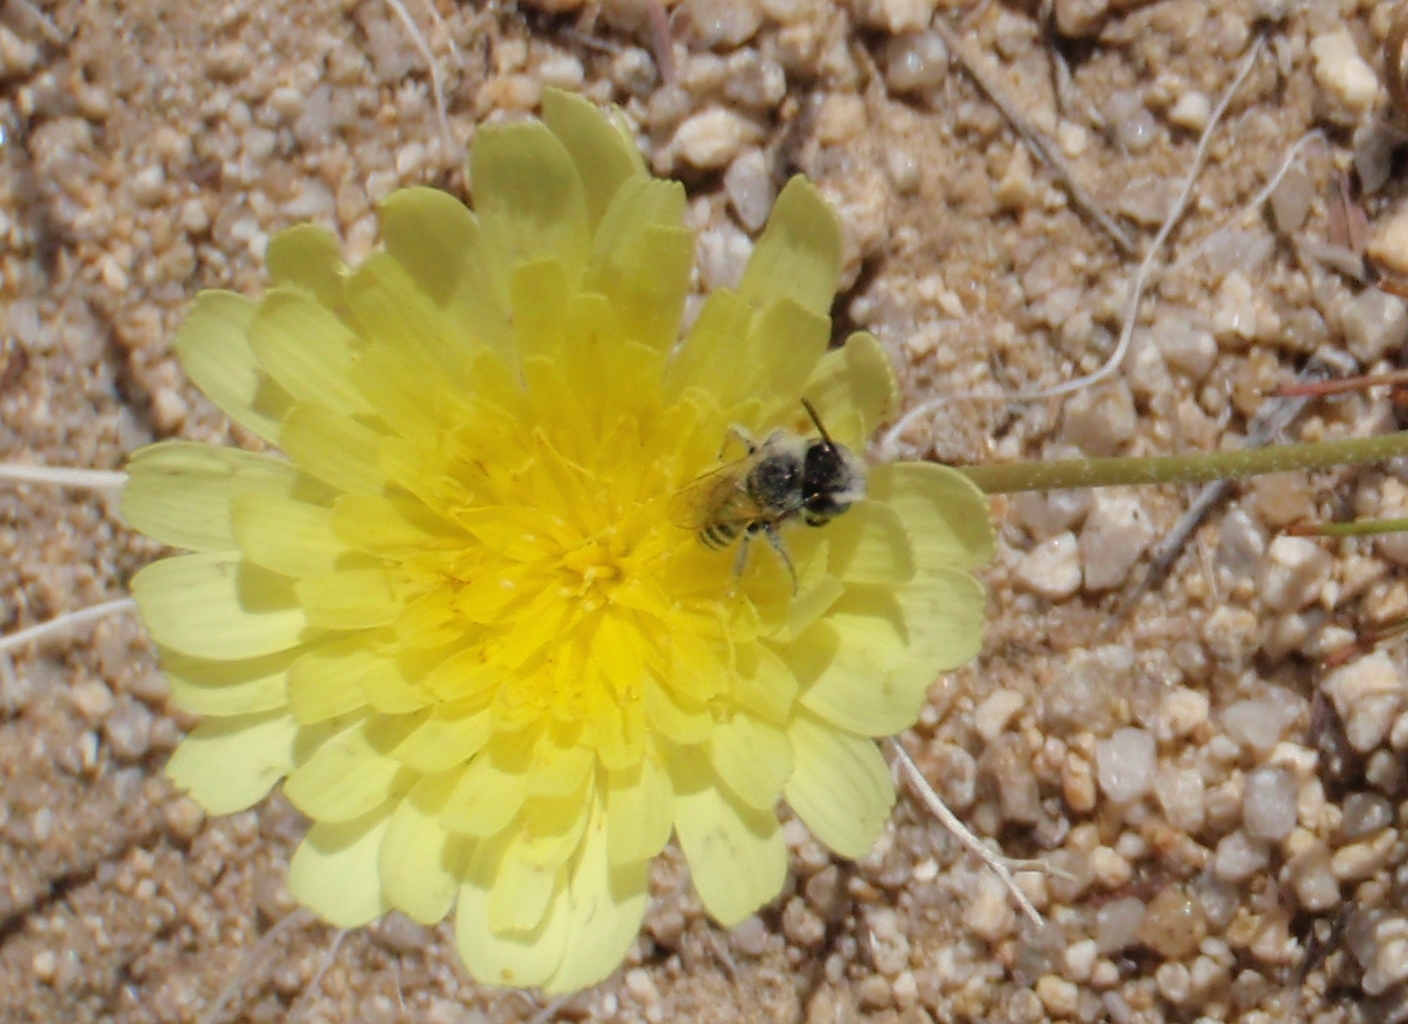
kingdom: Animalia
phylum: Arthropoda
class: Insecta
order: Hymenoptera
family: Melittidae
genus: Hesperapis
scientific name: Hesperapis
